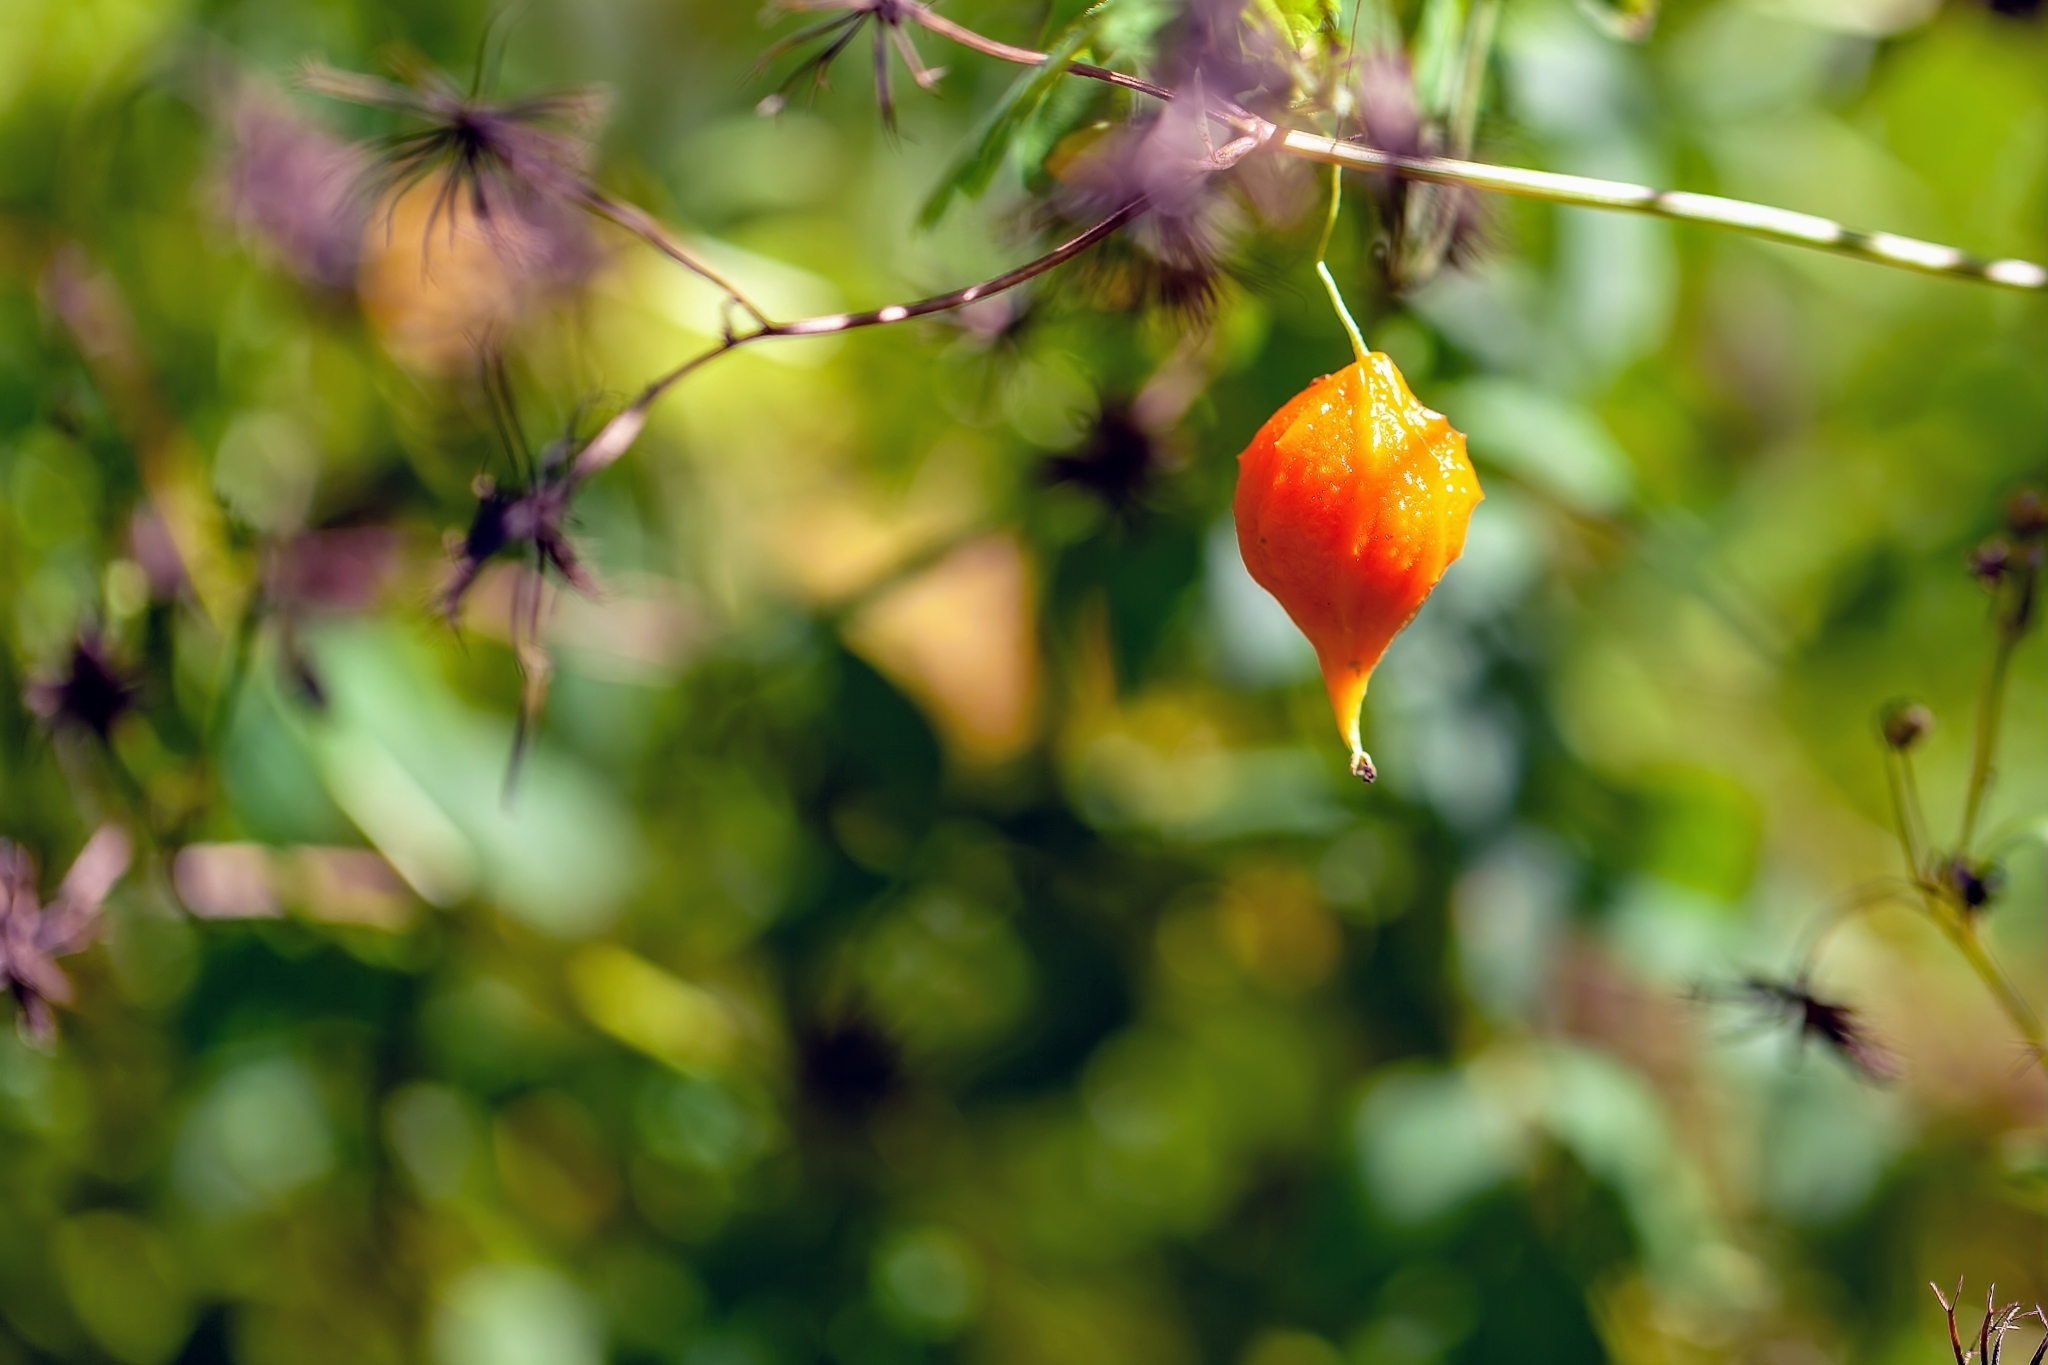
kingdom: Plantae
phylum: Tracheophyta
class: Magnoliopsida
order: Cucurbitales
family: Cucurbitaceae
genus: Momordica
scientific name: Momordica charantia
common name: Balsampear
